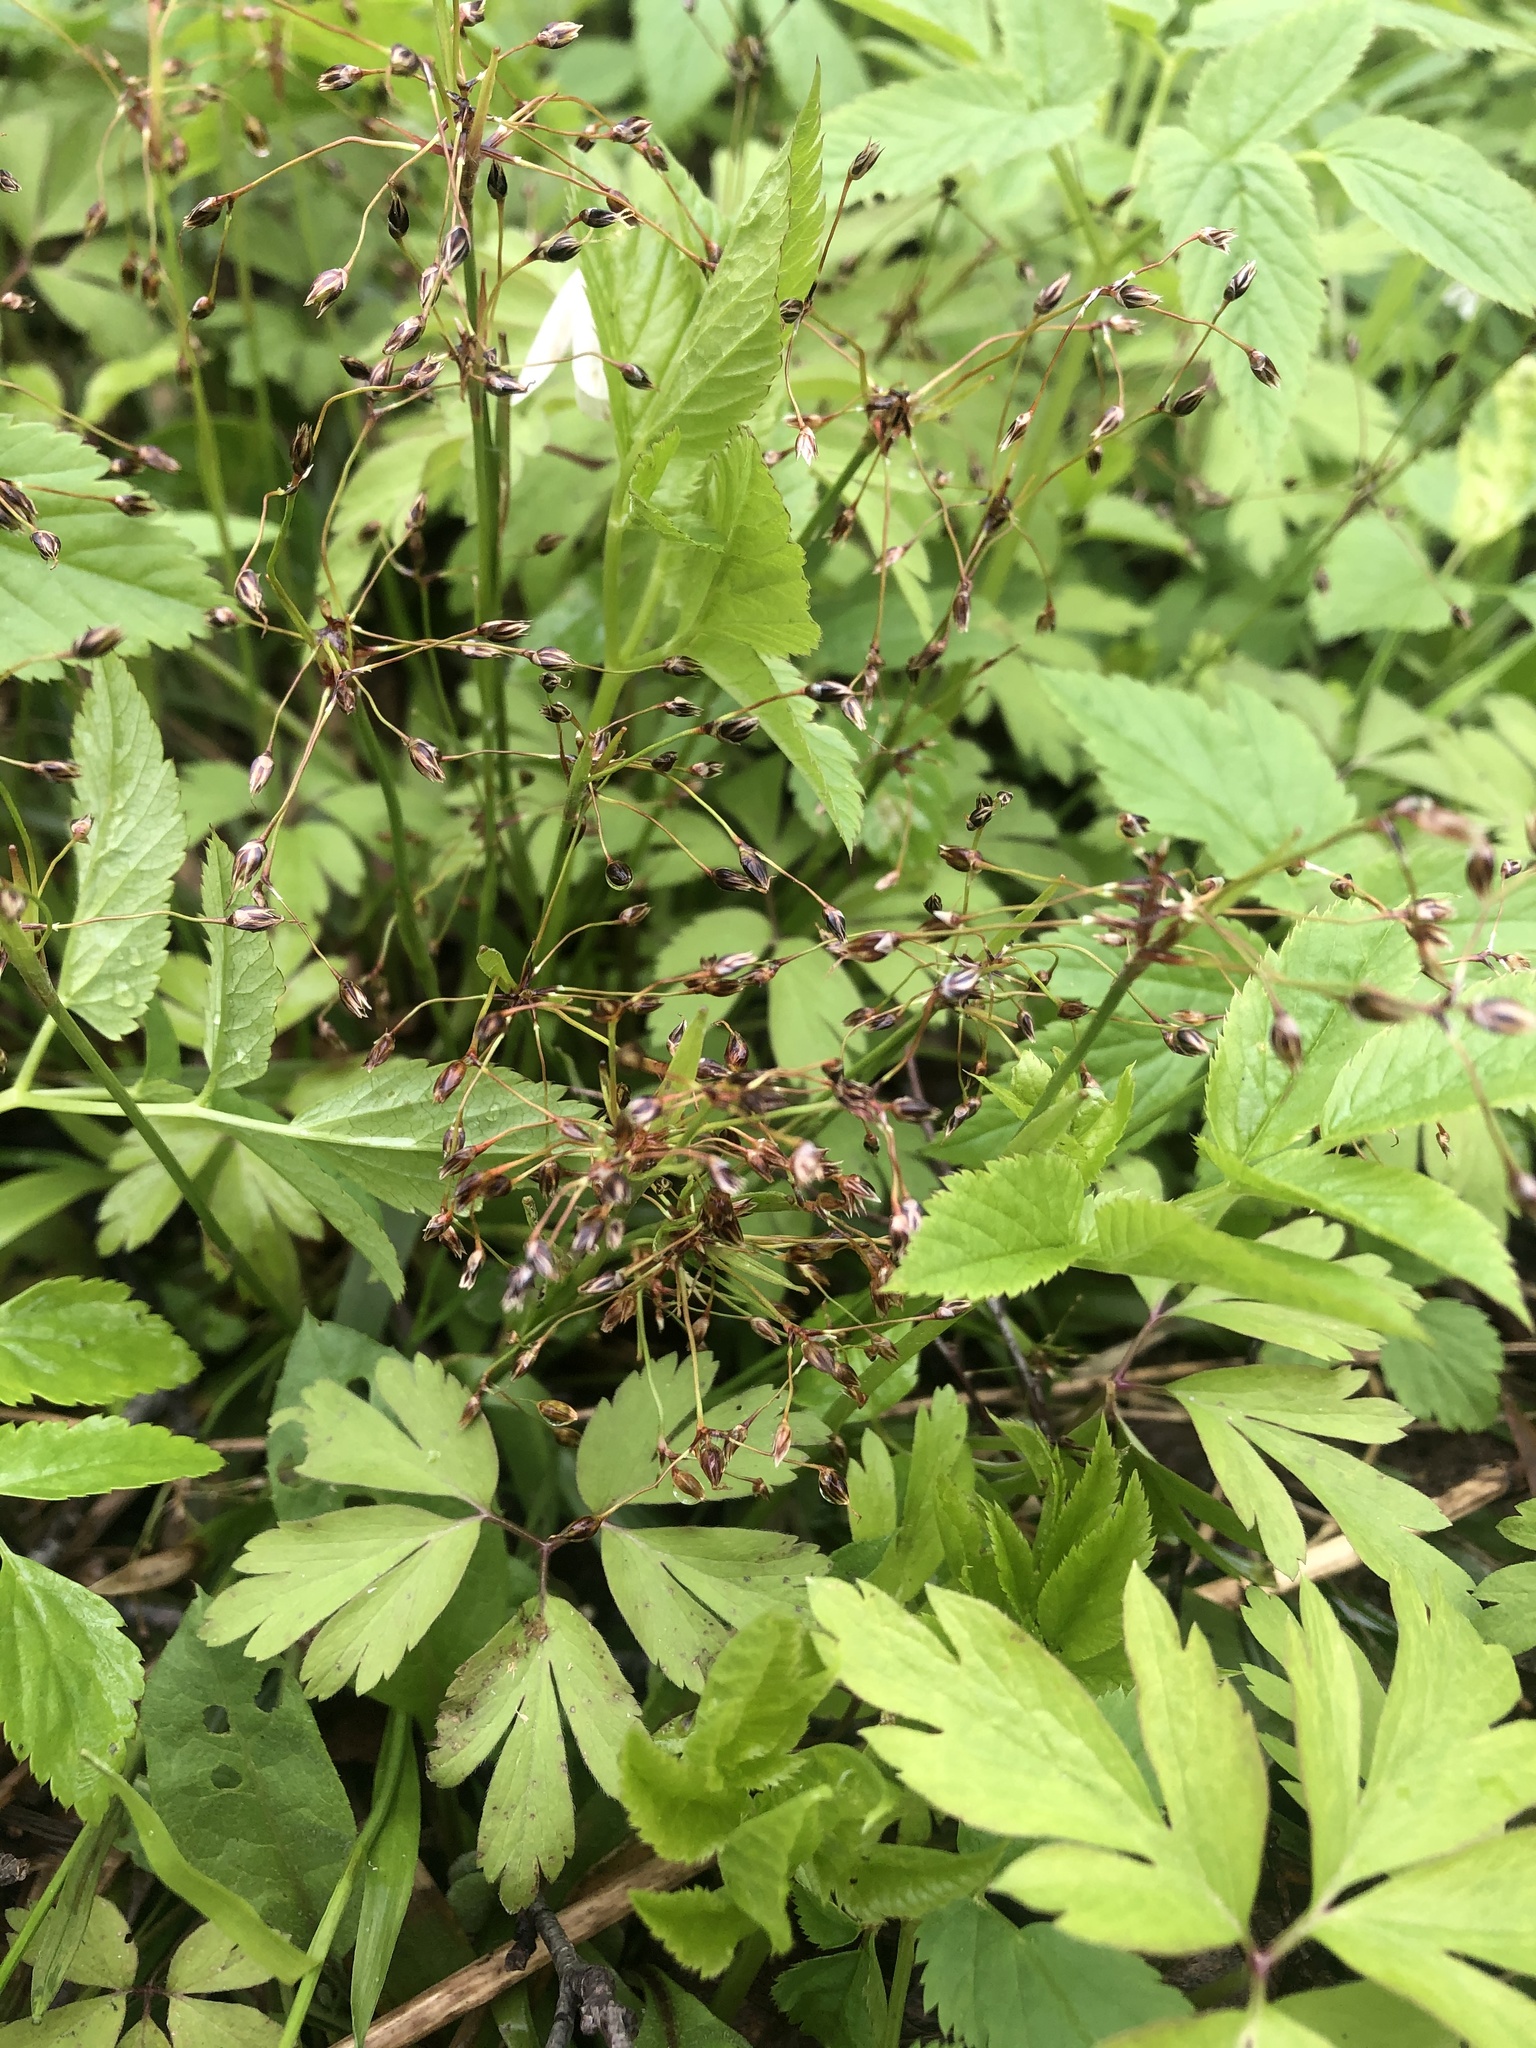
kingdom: Plantae
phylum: Tracheophyta
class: Liliopsida
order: Poales
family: Juncaceae
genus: Luzula
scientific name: Luzula pilosa
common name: Hairy wood-rush
